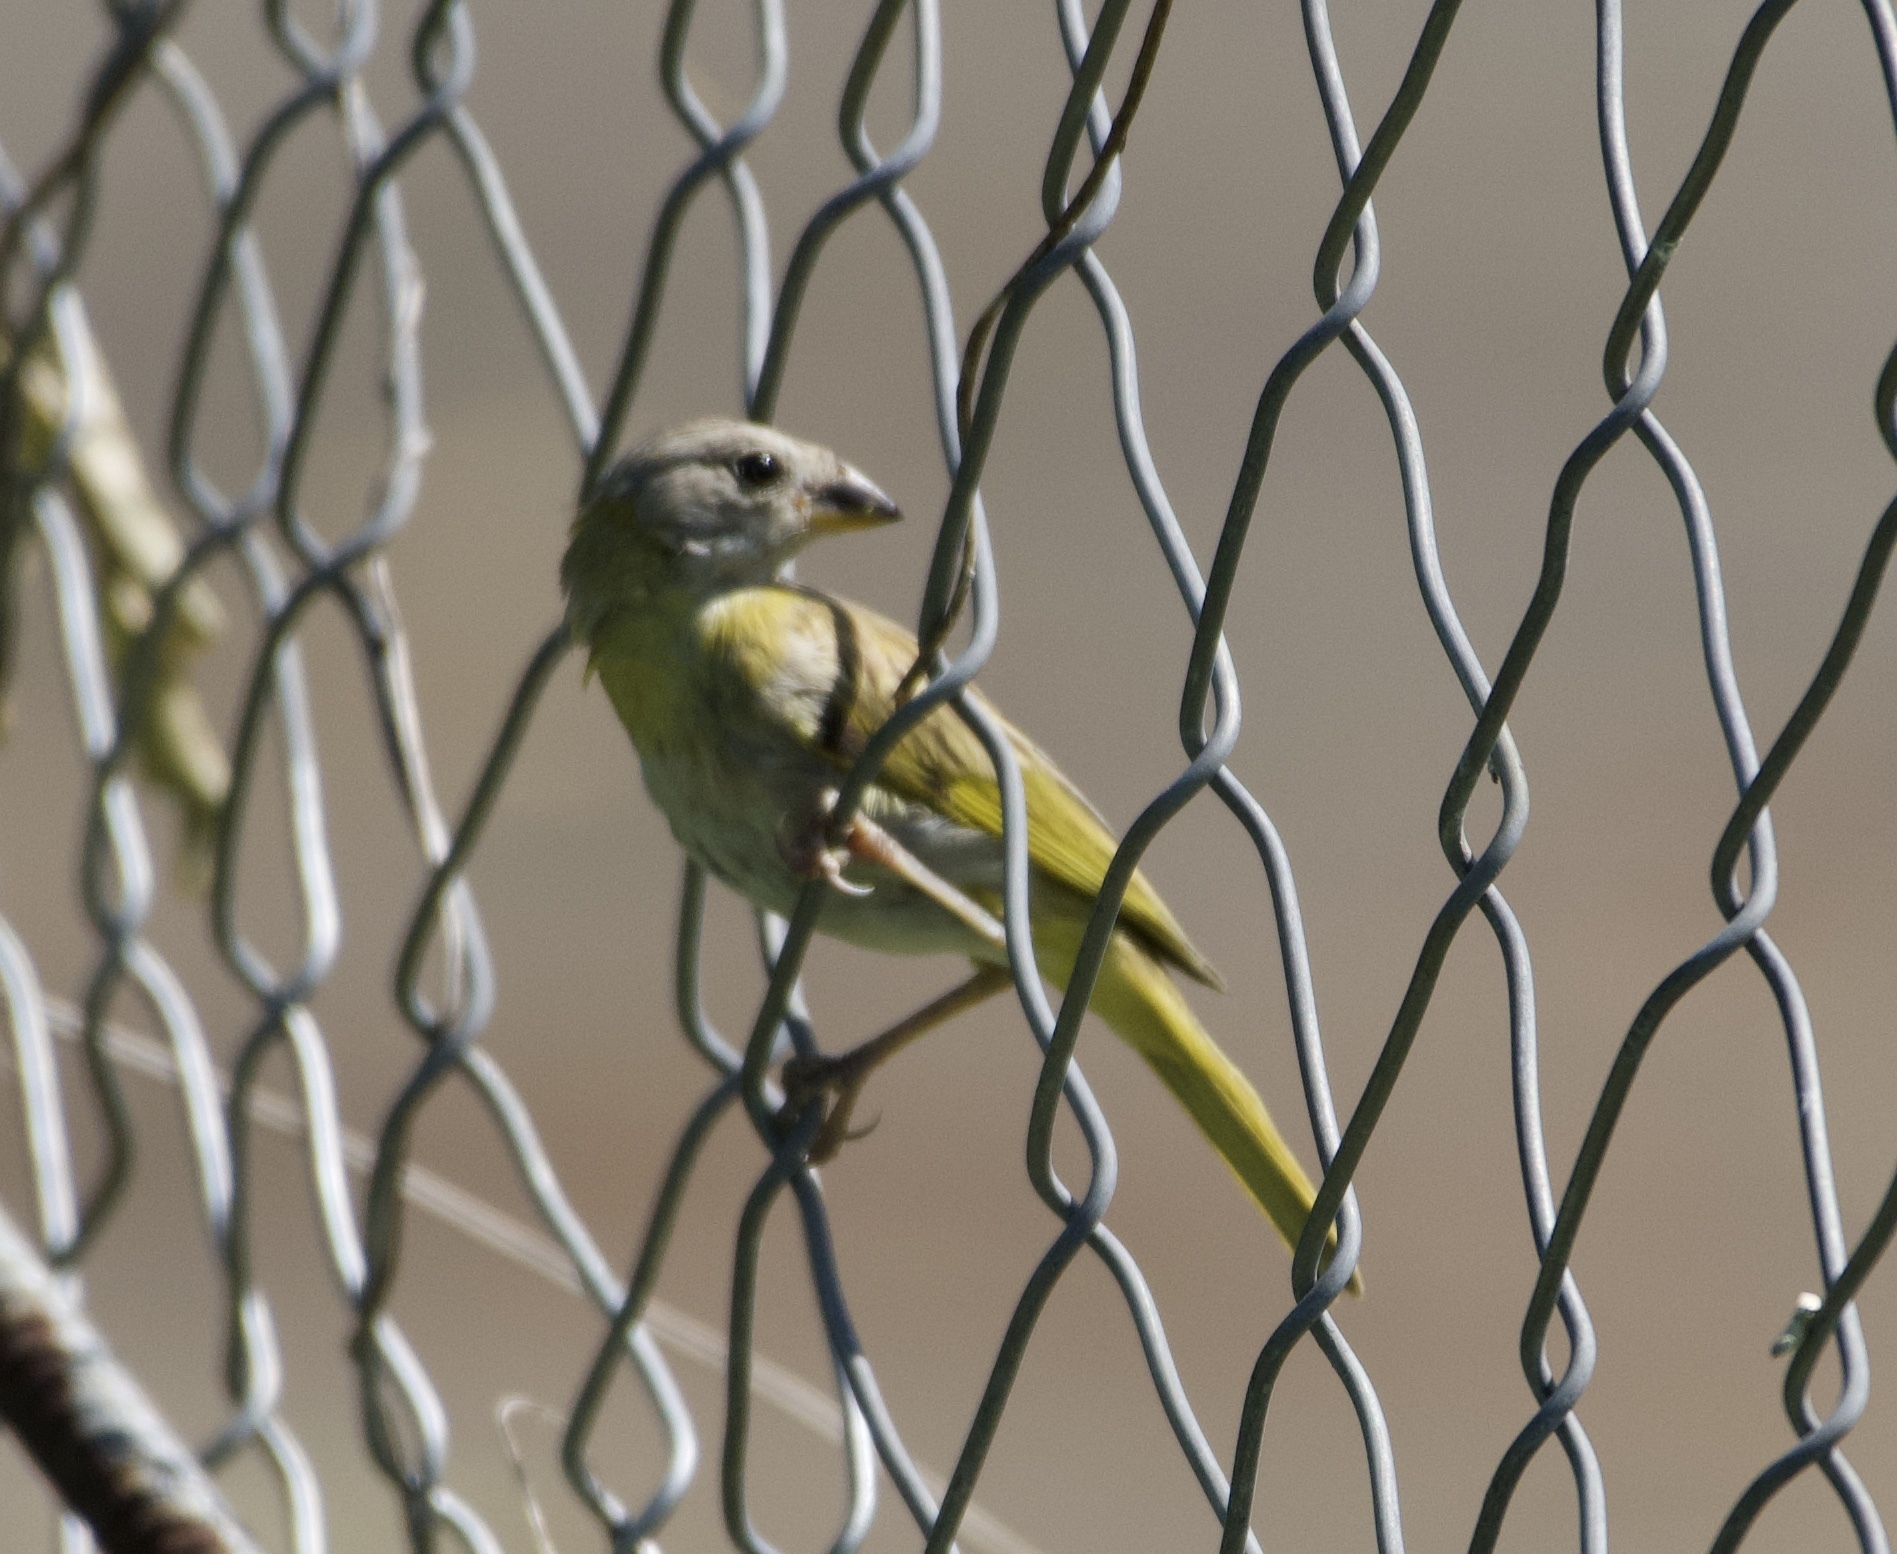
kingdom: Animalia
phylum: Chordata
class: Aves
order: Passeriformes
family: Thraupidae
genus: Sicalis
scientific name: Sicalis flaveola
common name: Saffron finch
